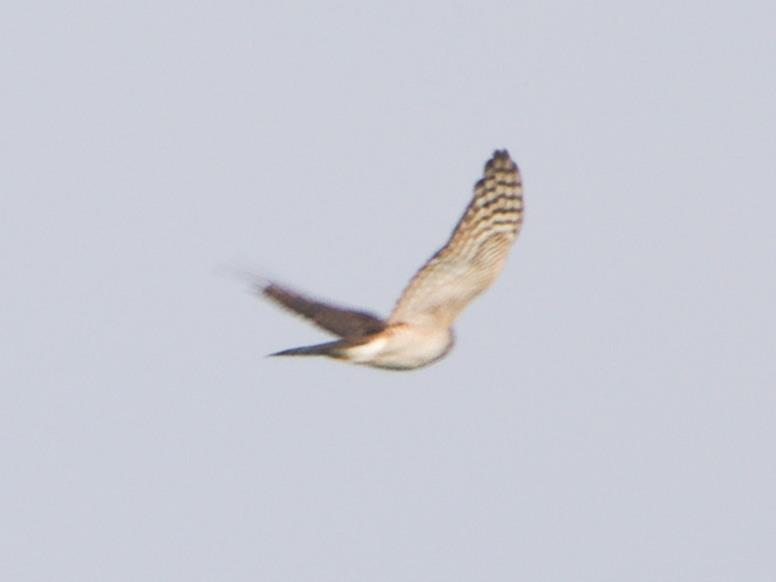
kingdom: Animalia
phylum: Chordata
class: Aves
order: Accipitriformes
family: Accipitridae
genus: Accipiter
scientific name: Accipiter nisus
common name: Eurasian sparrowhawk
